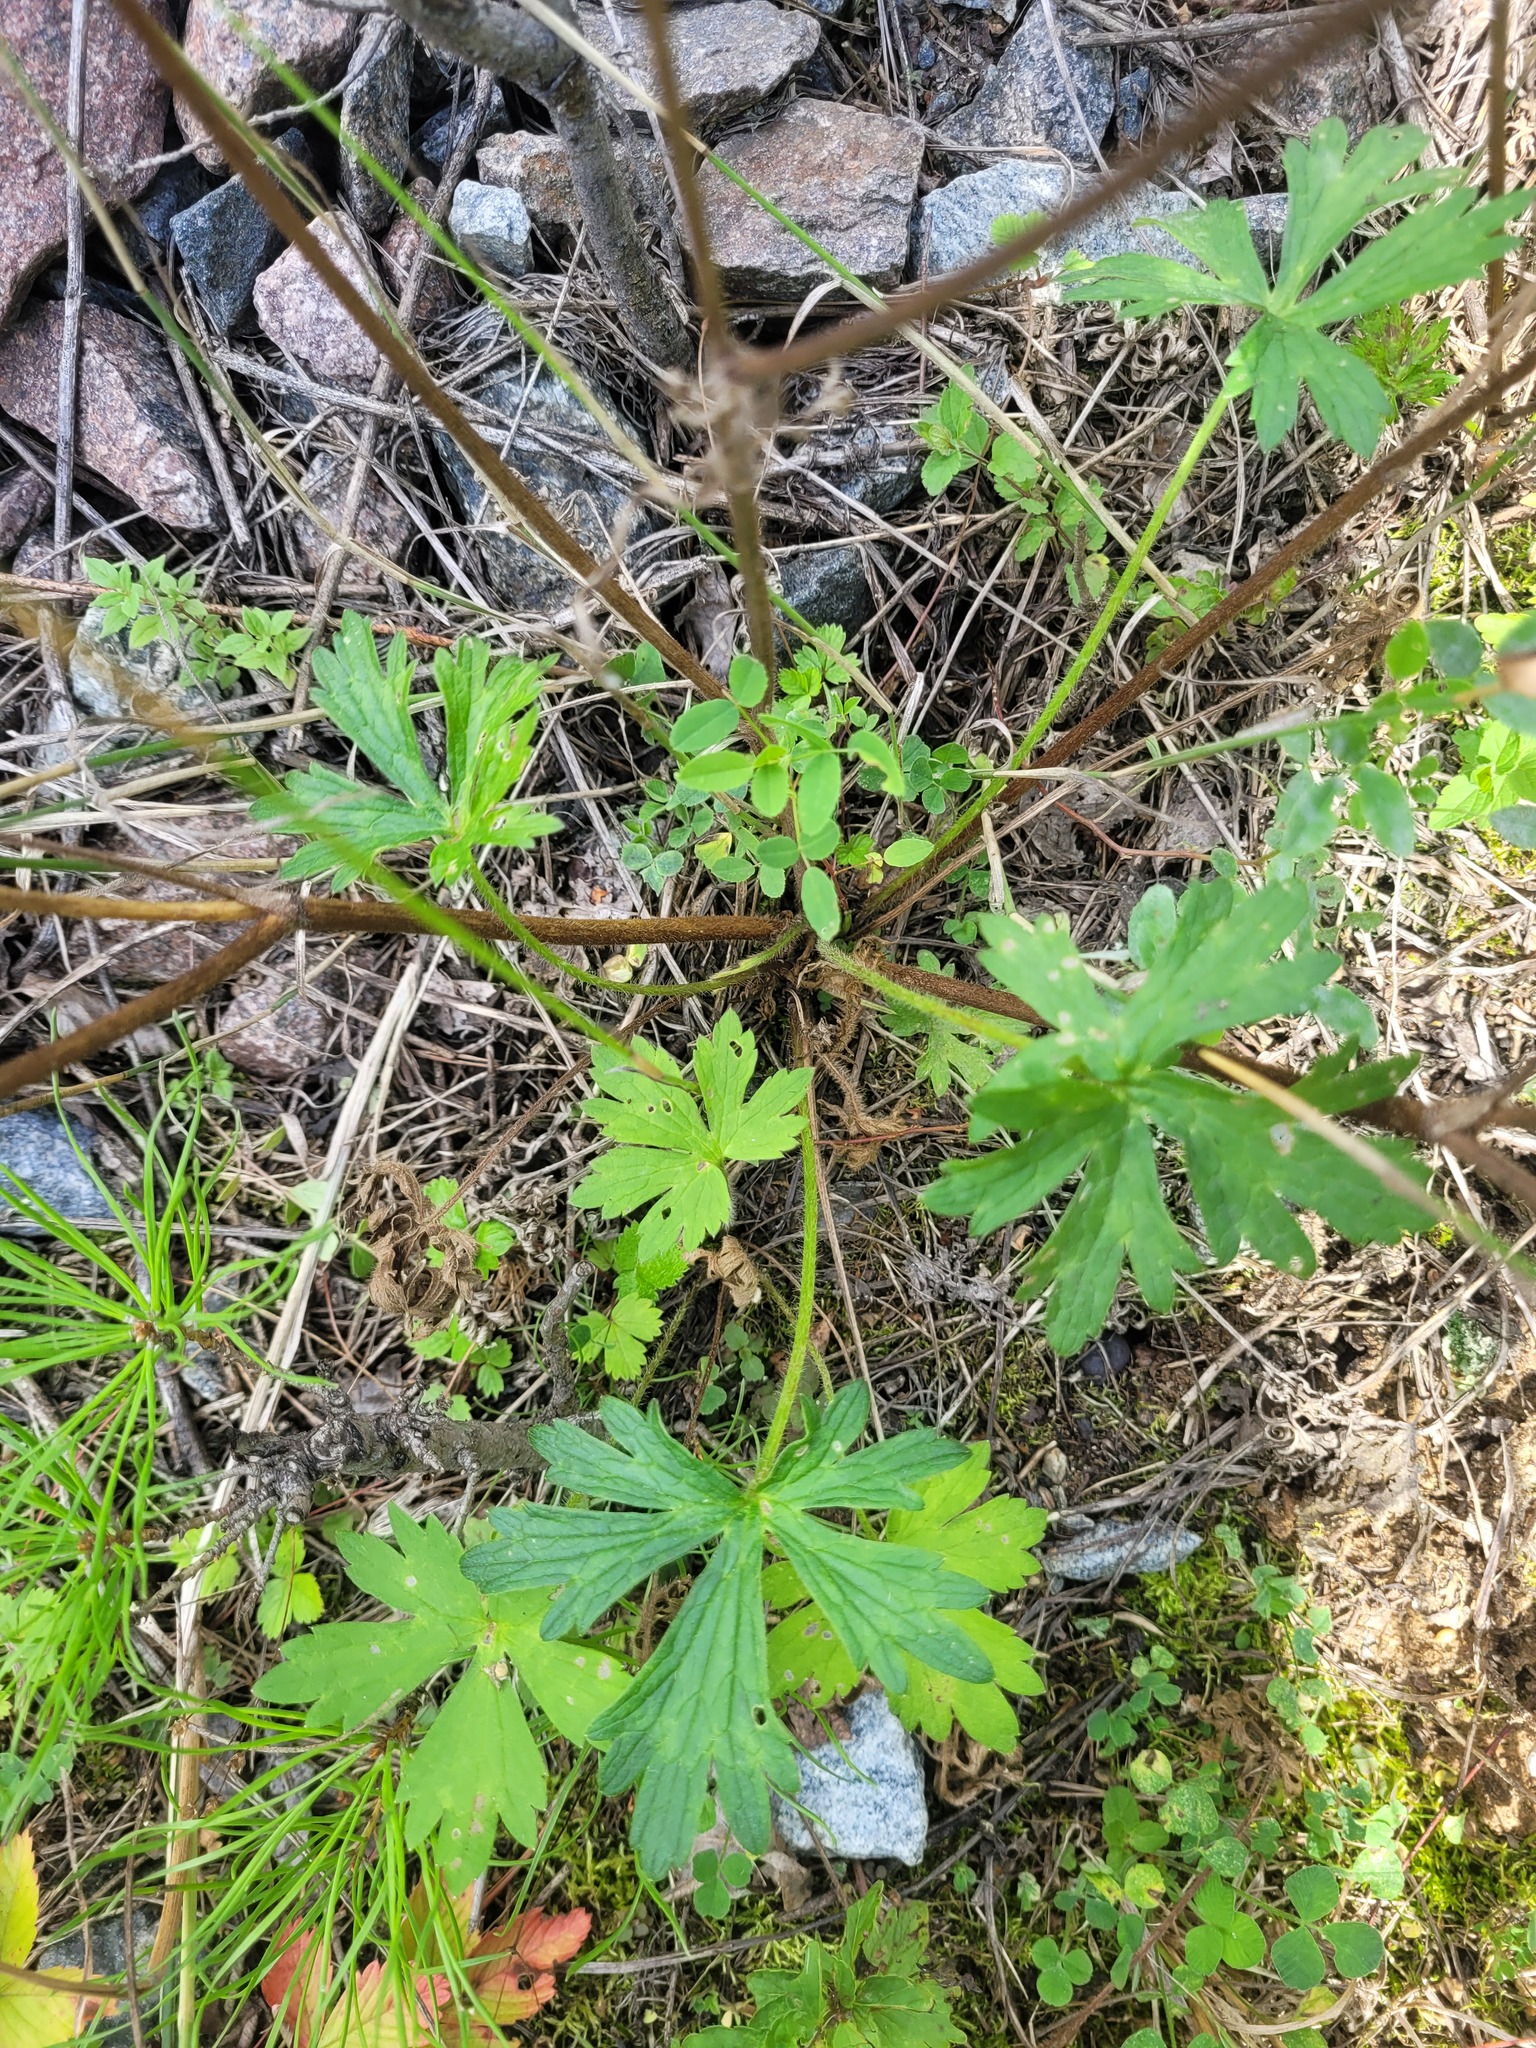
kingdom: Plantae
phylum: Tracheophyta
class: Magnoliopsida
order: Ranunculales
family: Ranunculaceae
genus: Ranunculus
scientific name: Ranunculus polyanthemos
